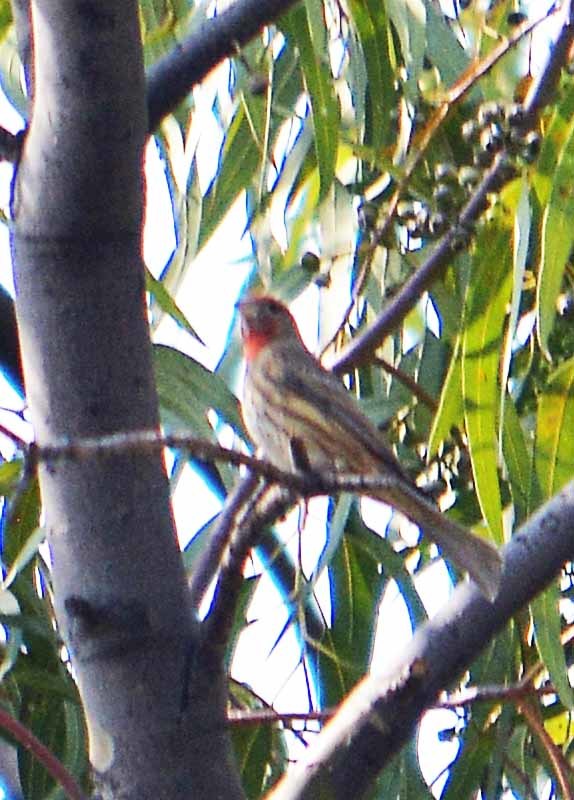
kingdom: Animalia
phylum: Chordata
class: Aves
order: Passeriformes
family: Fringillidae
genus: Haemorhous
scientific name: Haemorhous mexicanus
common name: House finch
